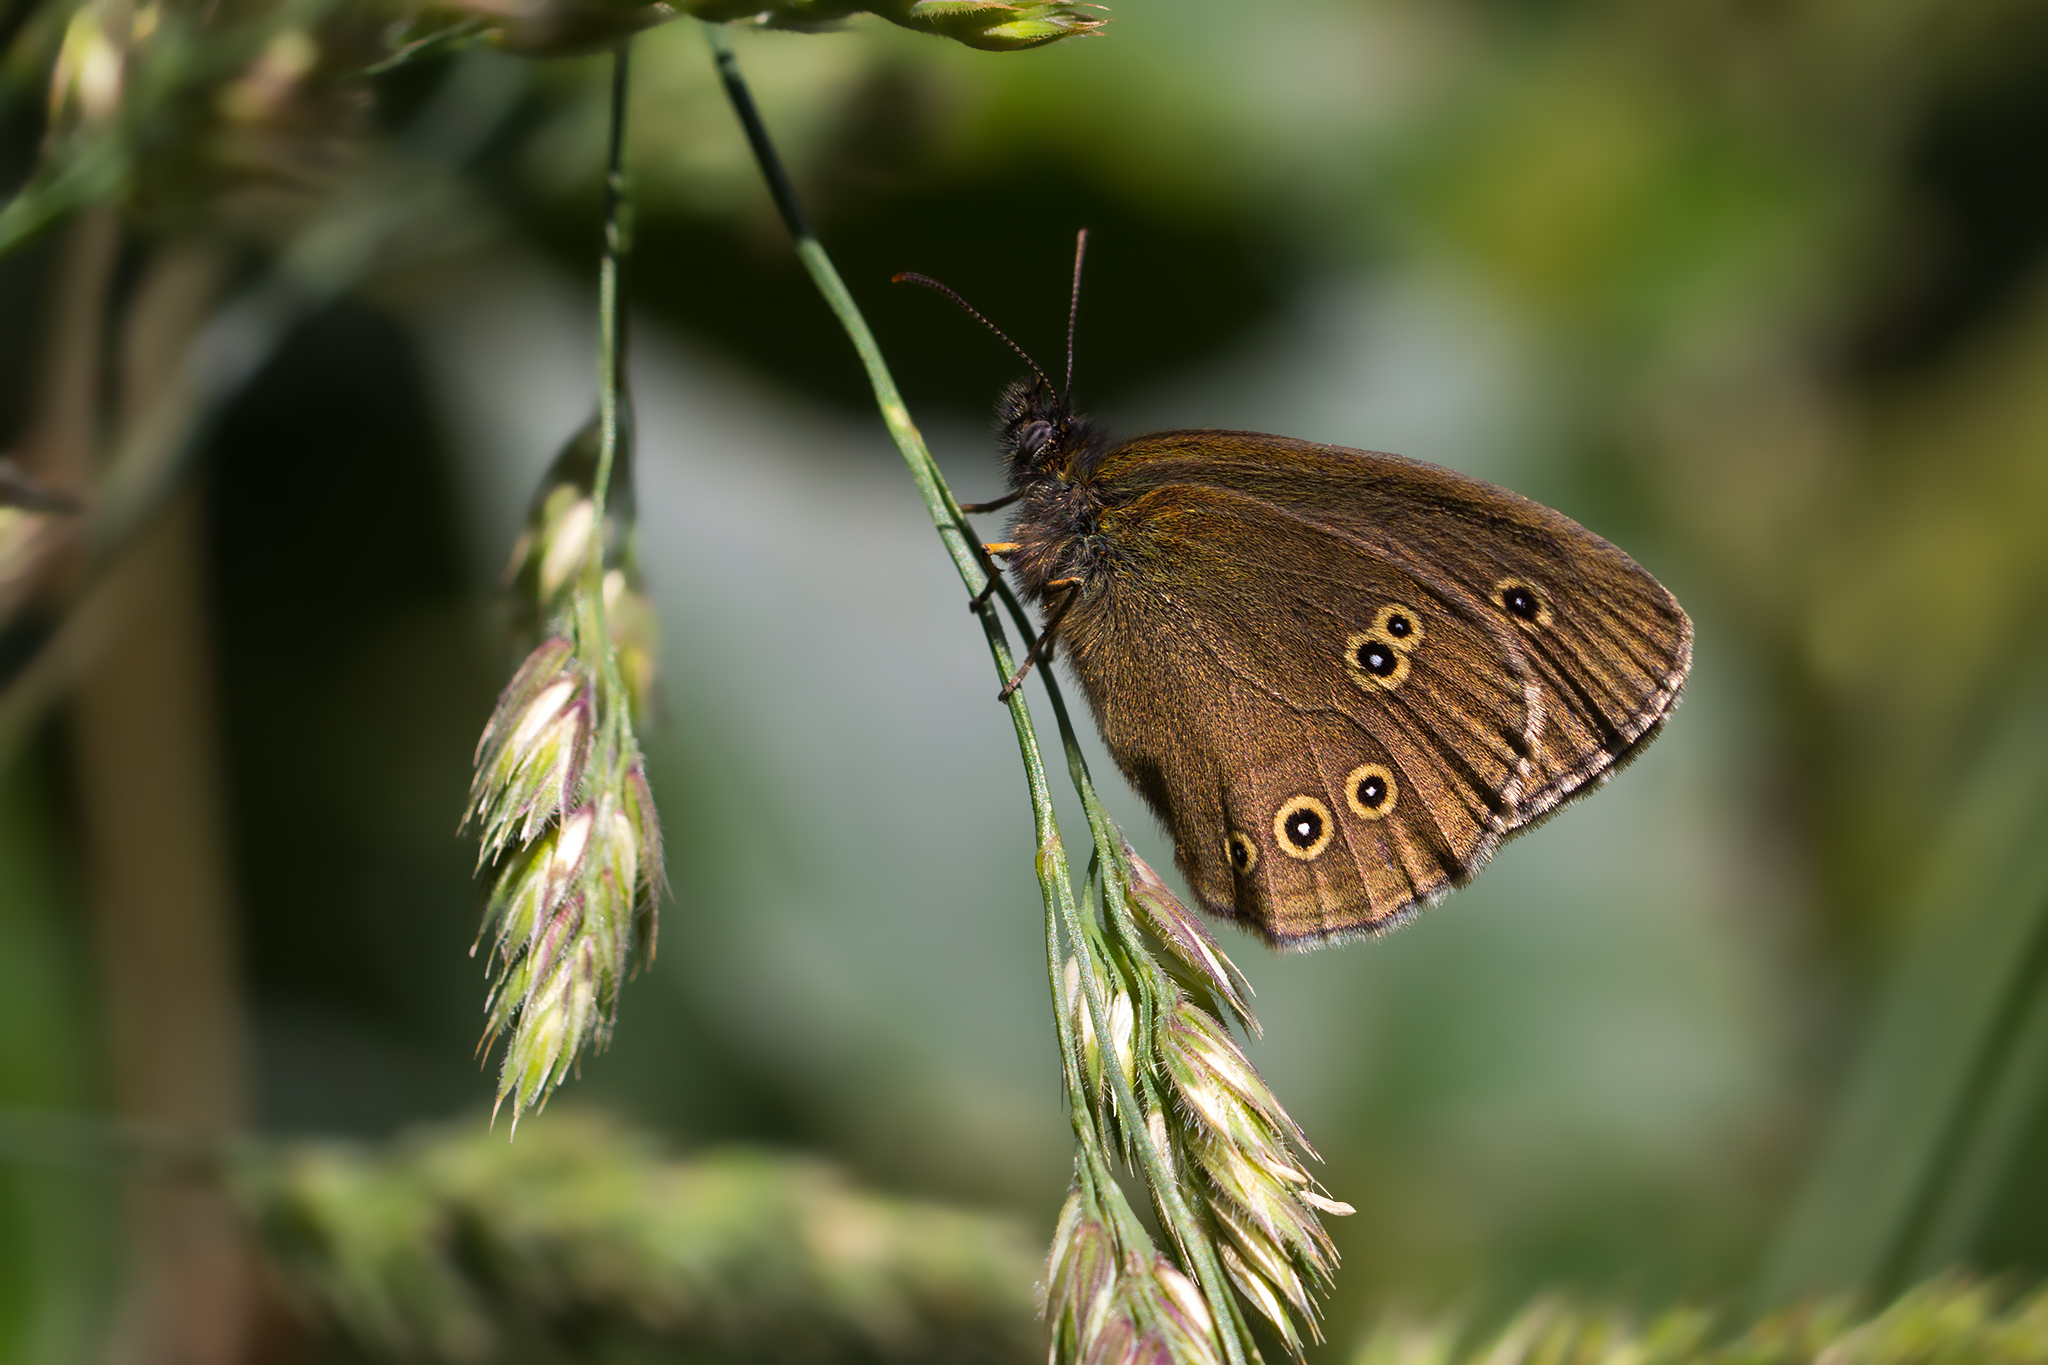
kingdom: Animalia
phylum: Arthropoda
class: Insecta
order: Lepidoptera
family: Nymphalidae
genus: Aphantopus
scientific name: Aphantopus hyperantus
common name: Ringlet
